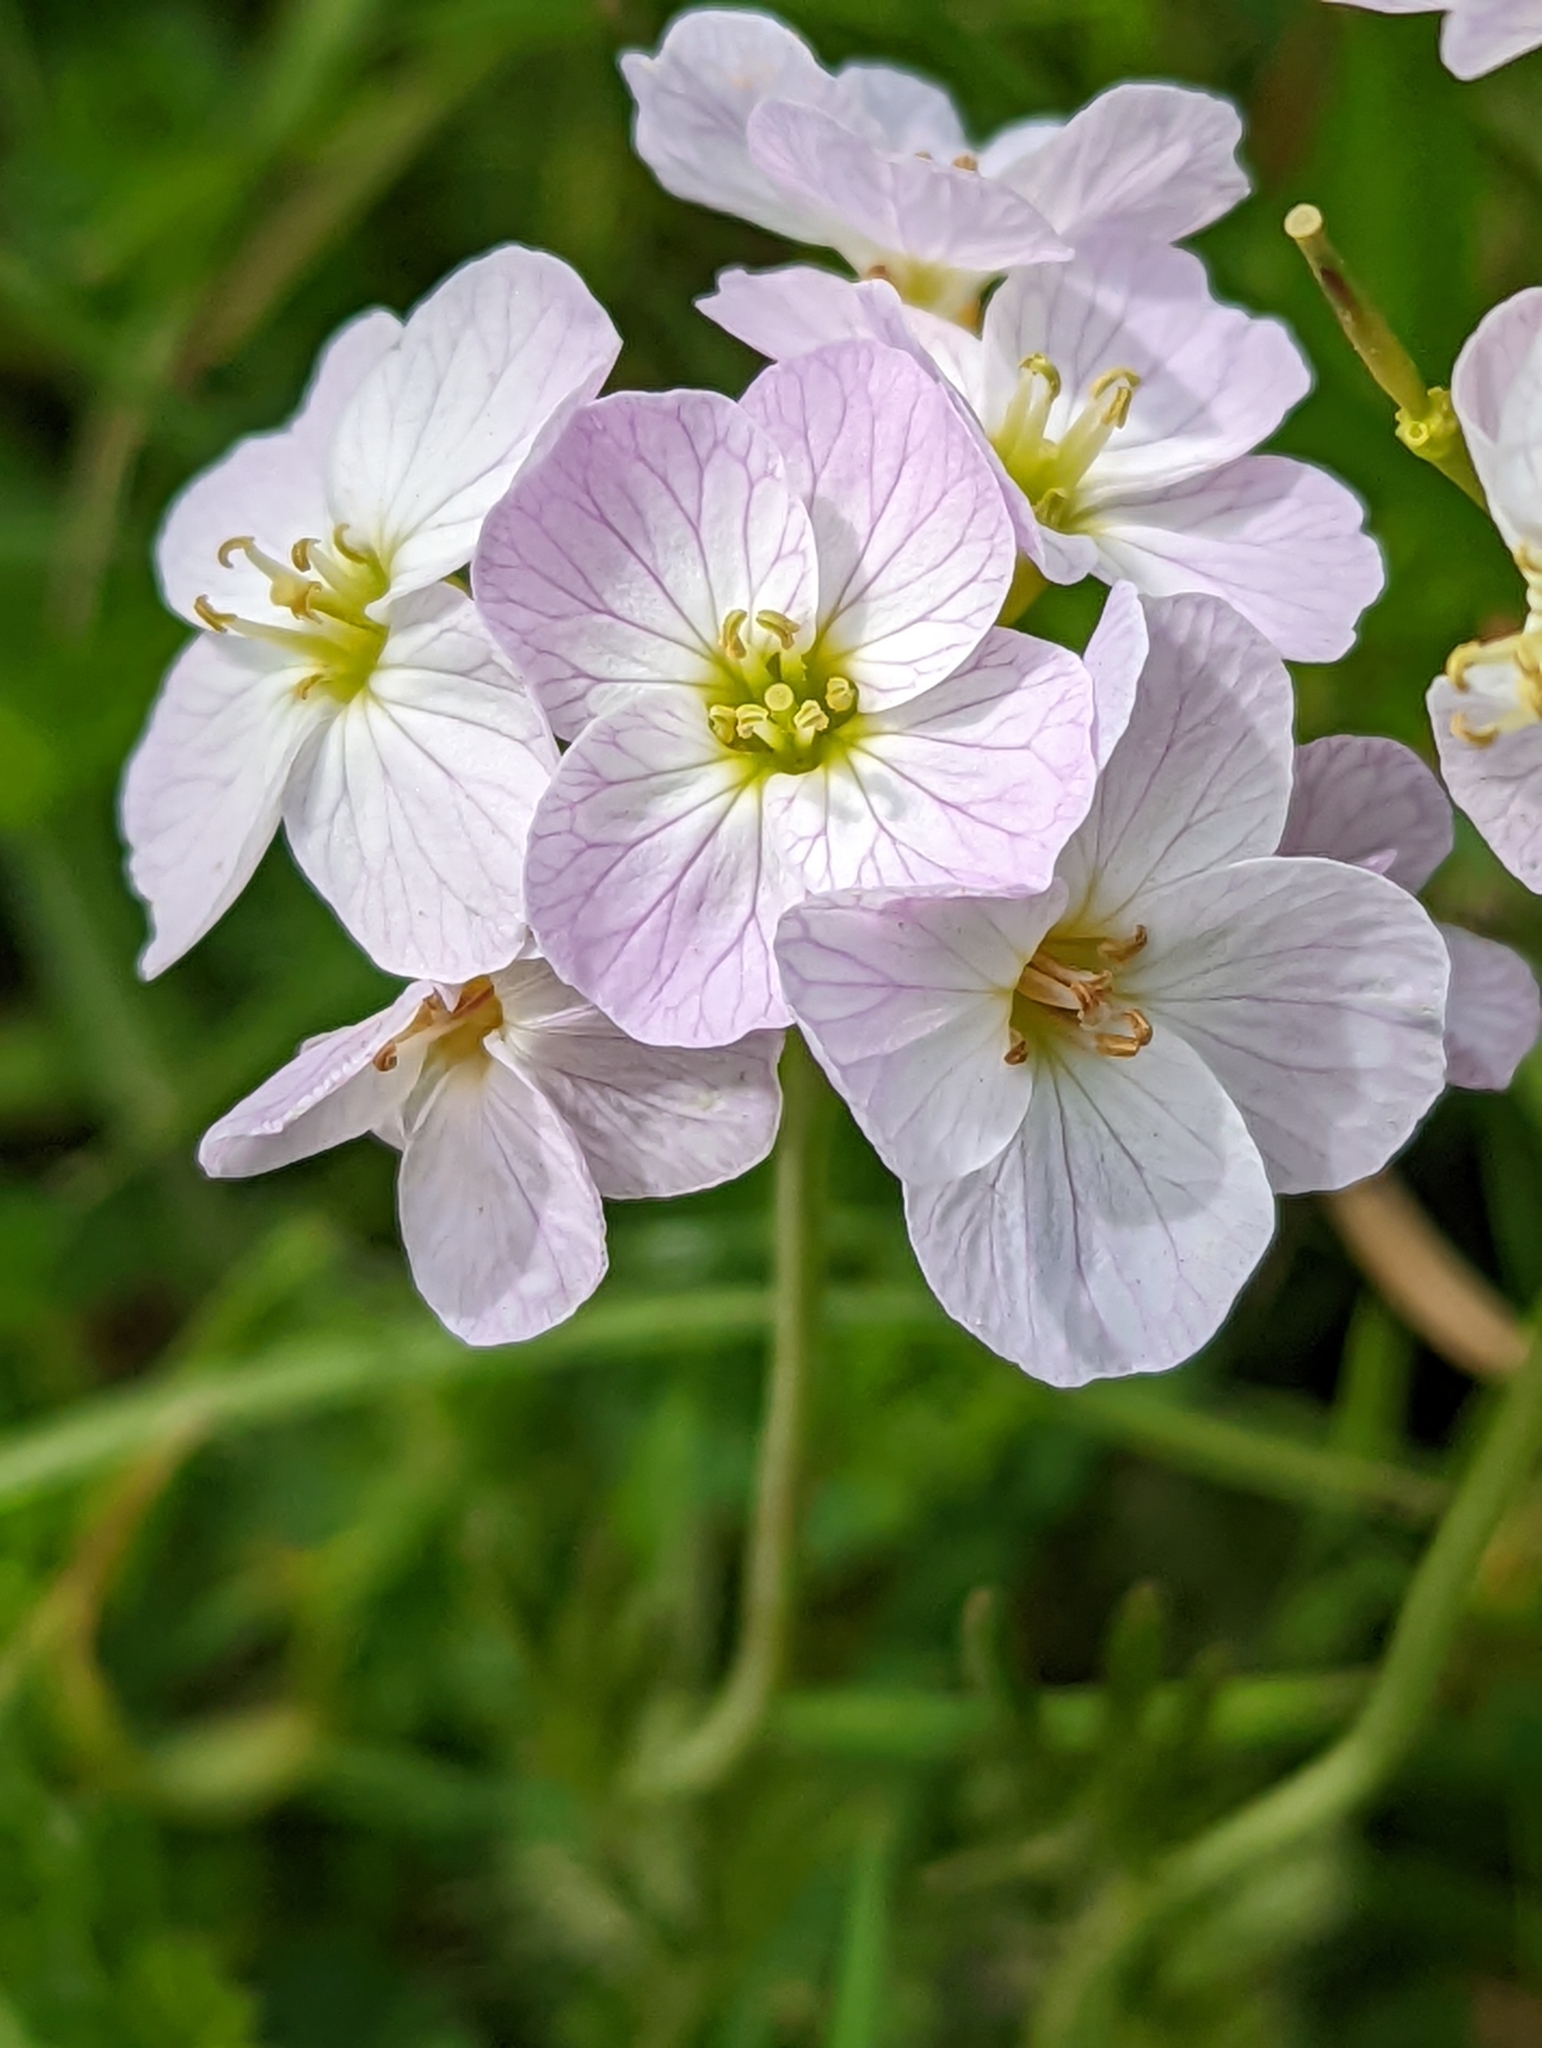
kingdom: Plantae
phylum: Tracheophyta
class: Magnoliopsida
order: Brassicales
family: Brassicaceae
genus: Cardamine
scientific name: Cardamine pratensis
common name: Cuckoo flower
